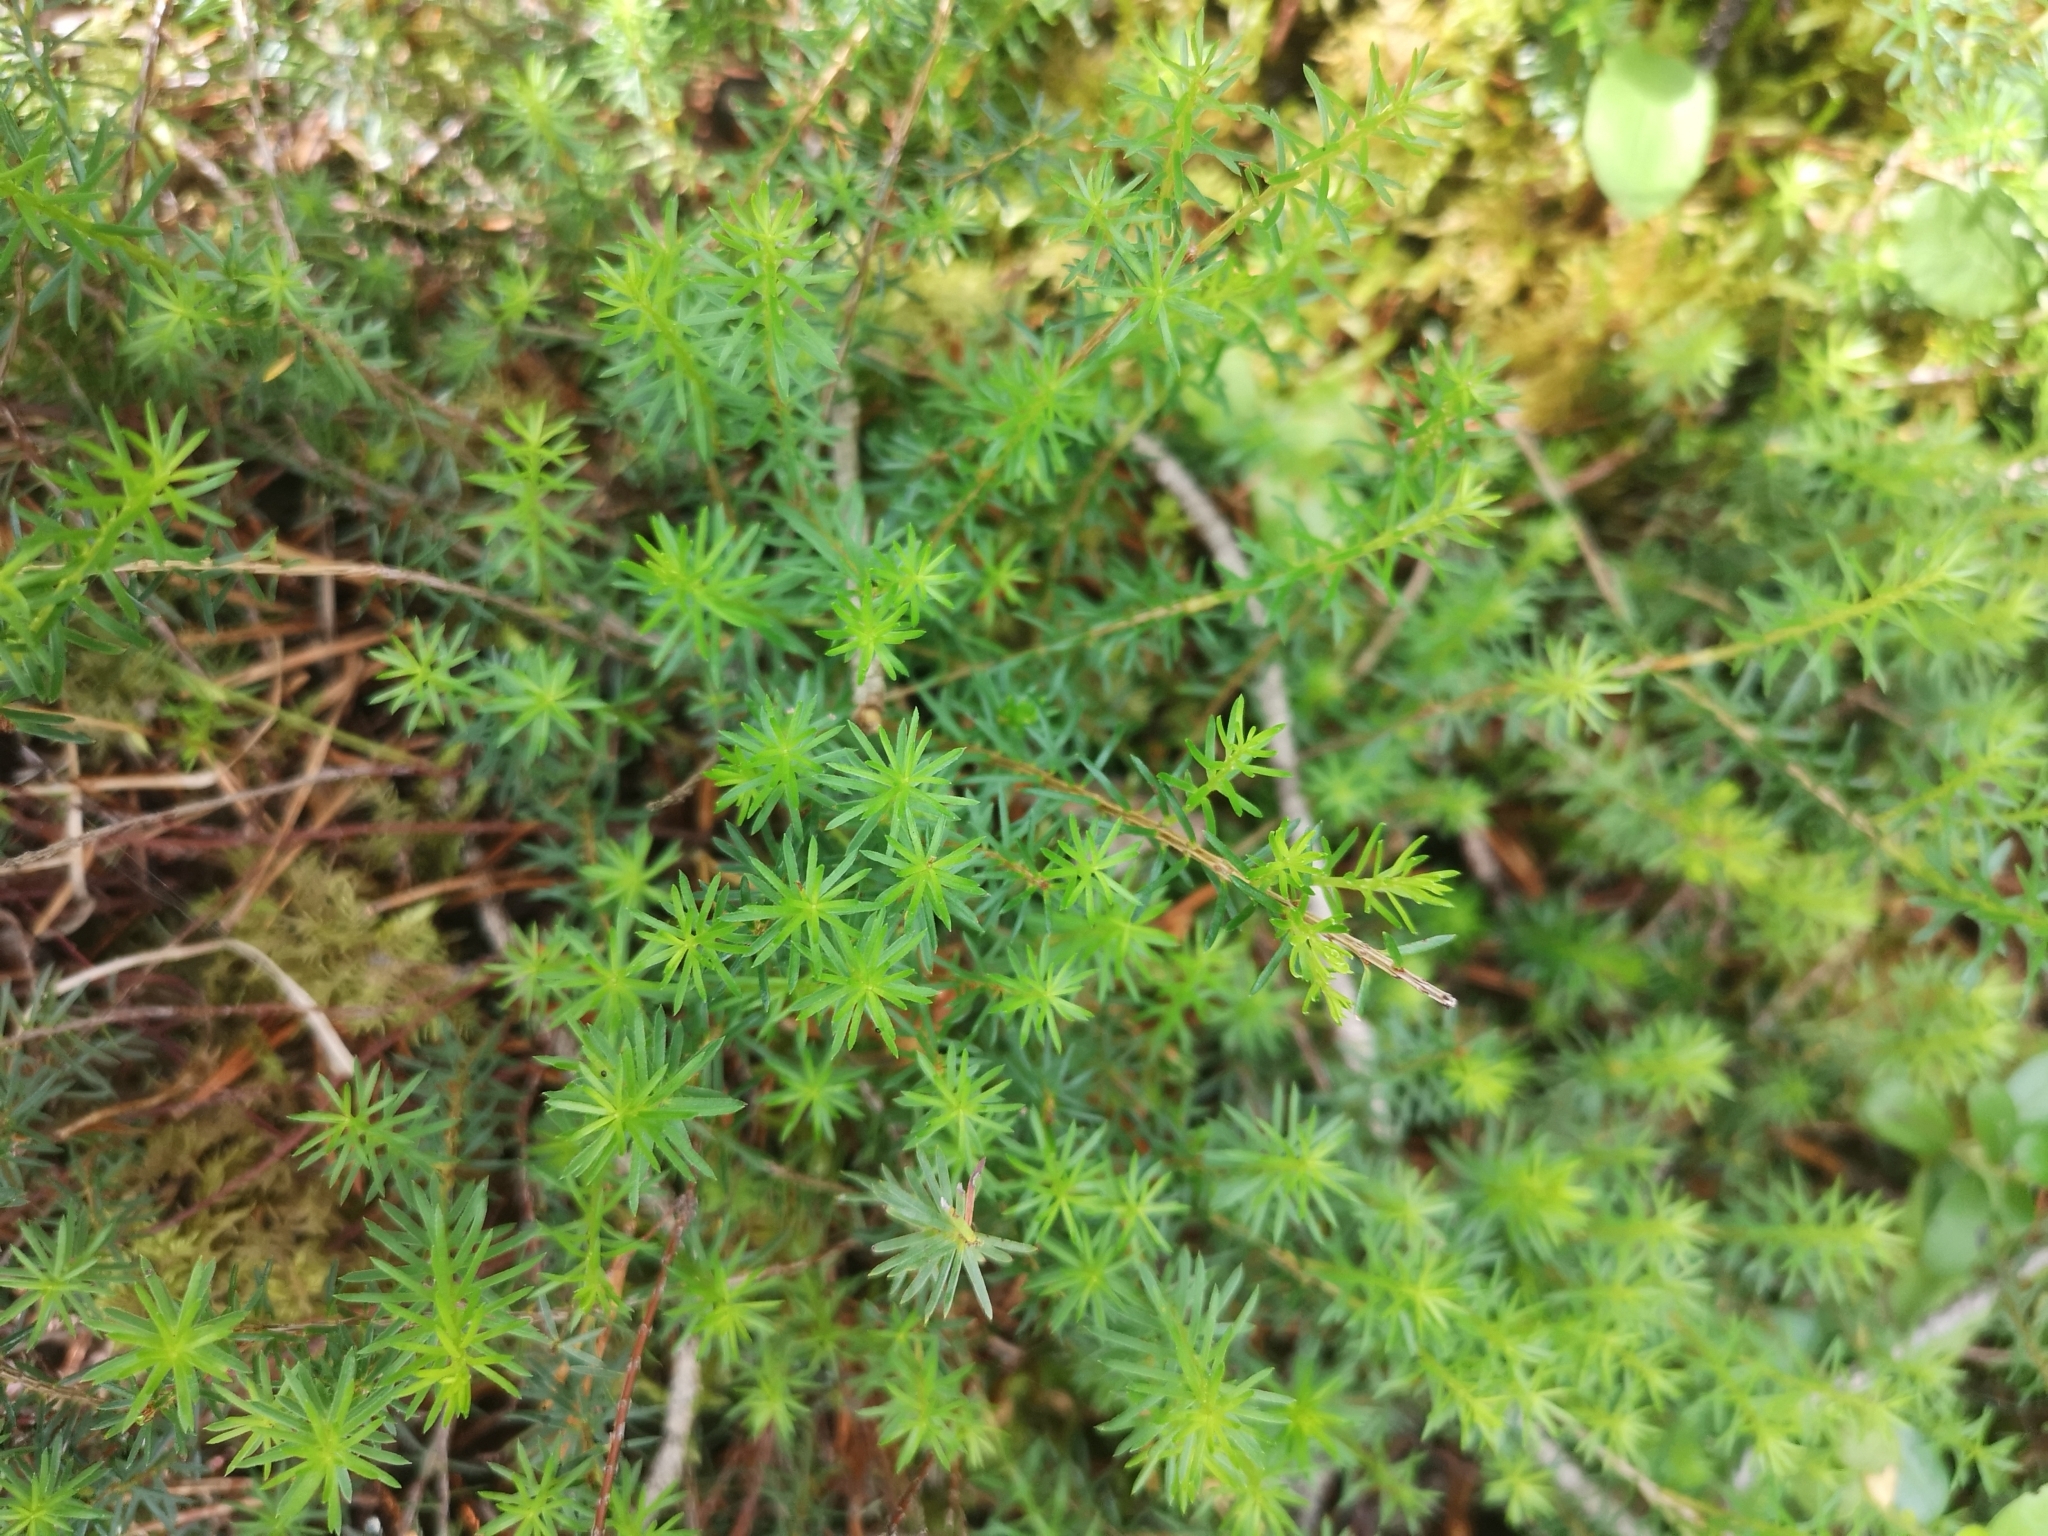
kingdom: Plantae
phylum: Tracheophyta
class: Magnoliopsida
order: Ericales
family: Ericaceae
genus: Erica
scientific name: Erica carnea
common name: Winter heath
